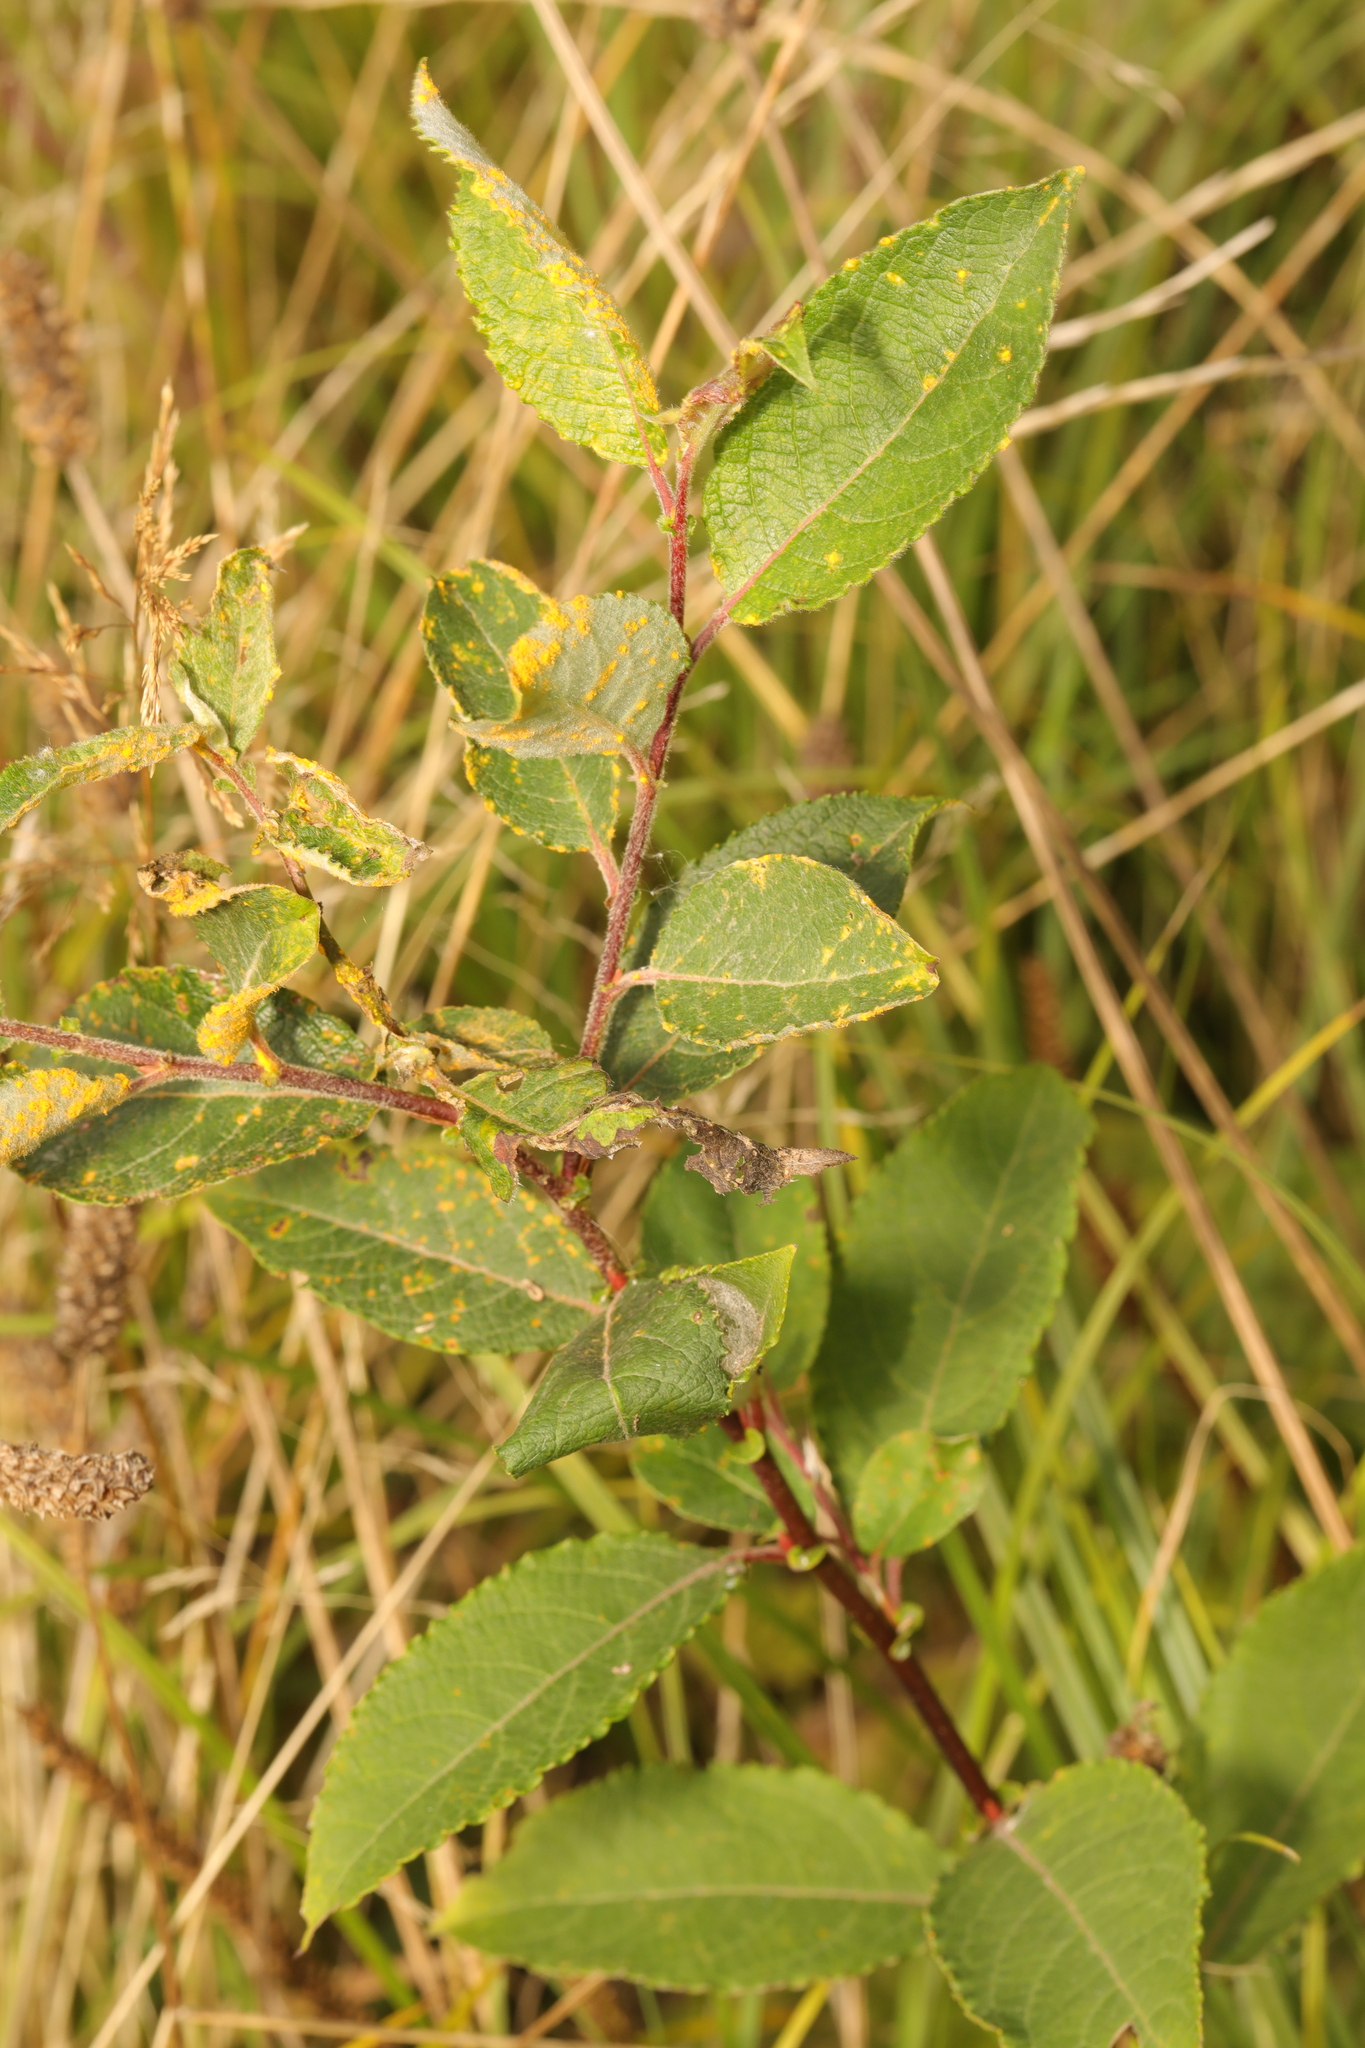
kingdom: Plantae
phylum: Tracheophyta
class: Magnoliopsida
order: Malpighiales
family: Salicaceae
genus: Salix
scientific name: Salix caprea
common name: Goat willow
